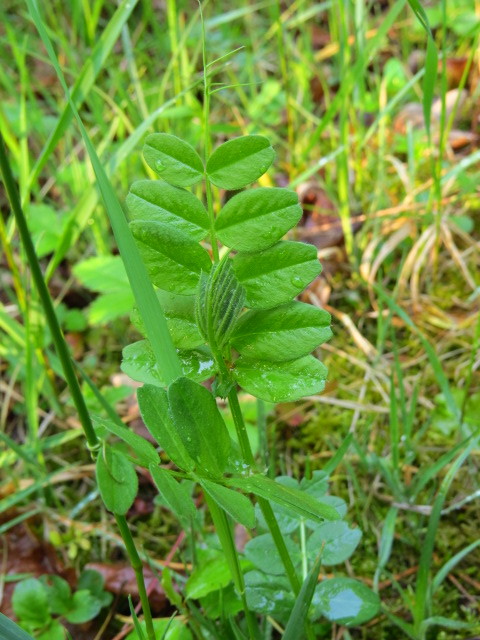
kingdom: Plantae
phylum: Tracheophyta
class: Magnoliopsida
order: Fabales
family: Fabaceae
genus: Vicia
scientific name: Vicia sepium
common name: Bush vetch
